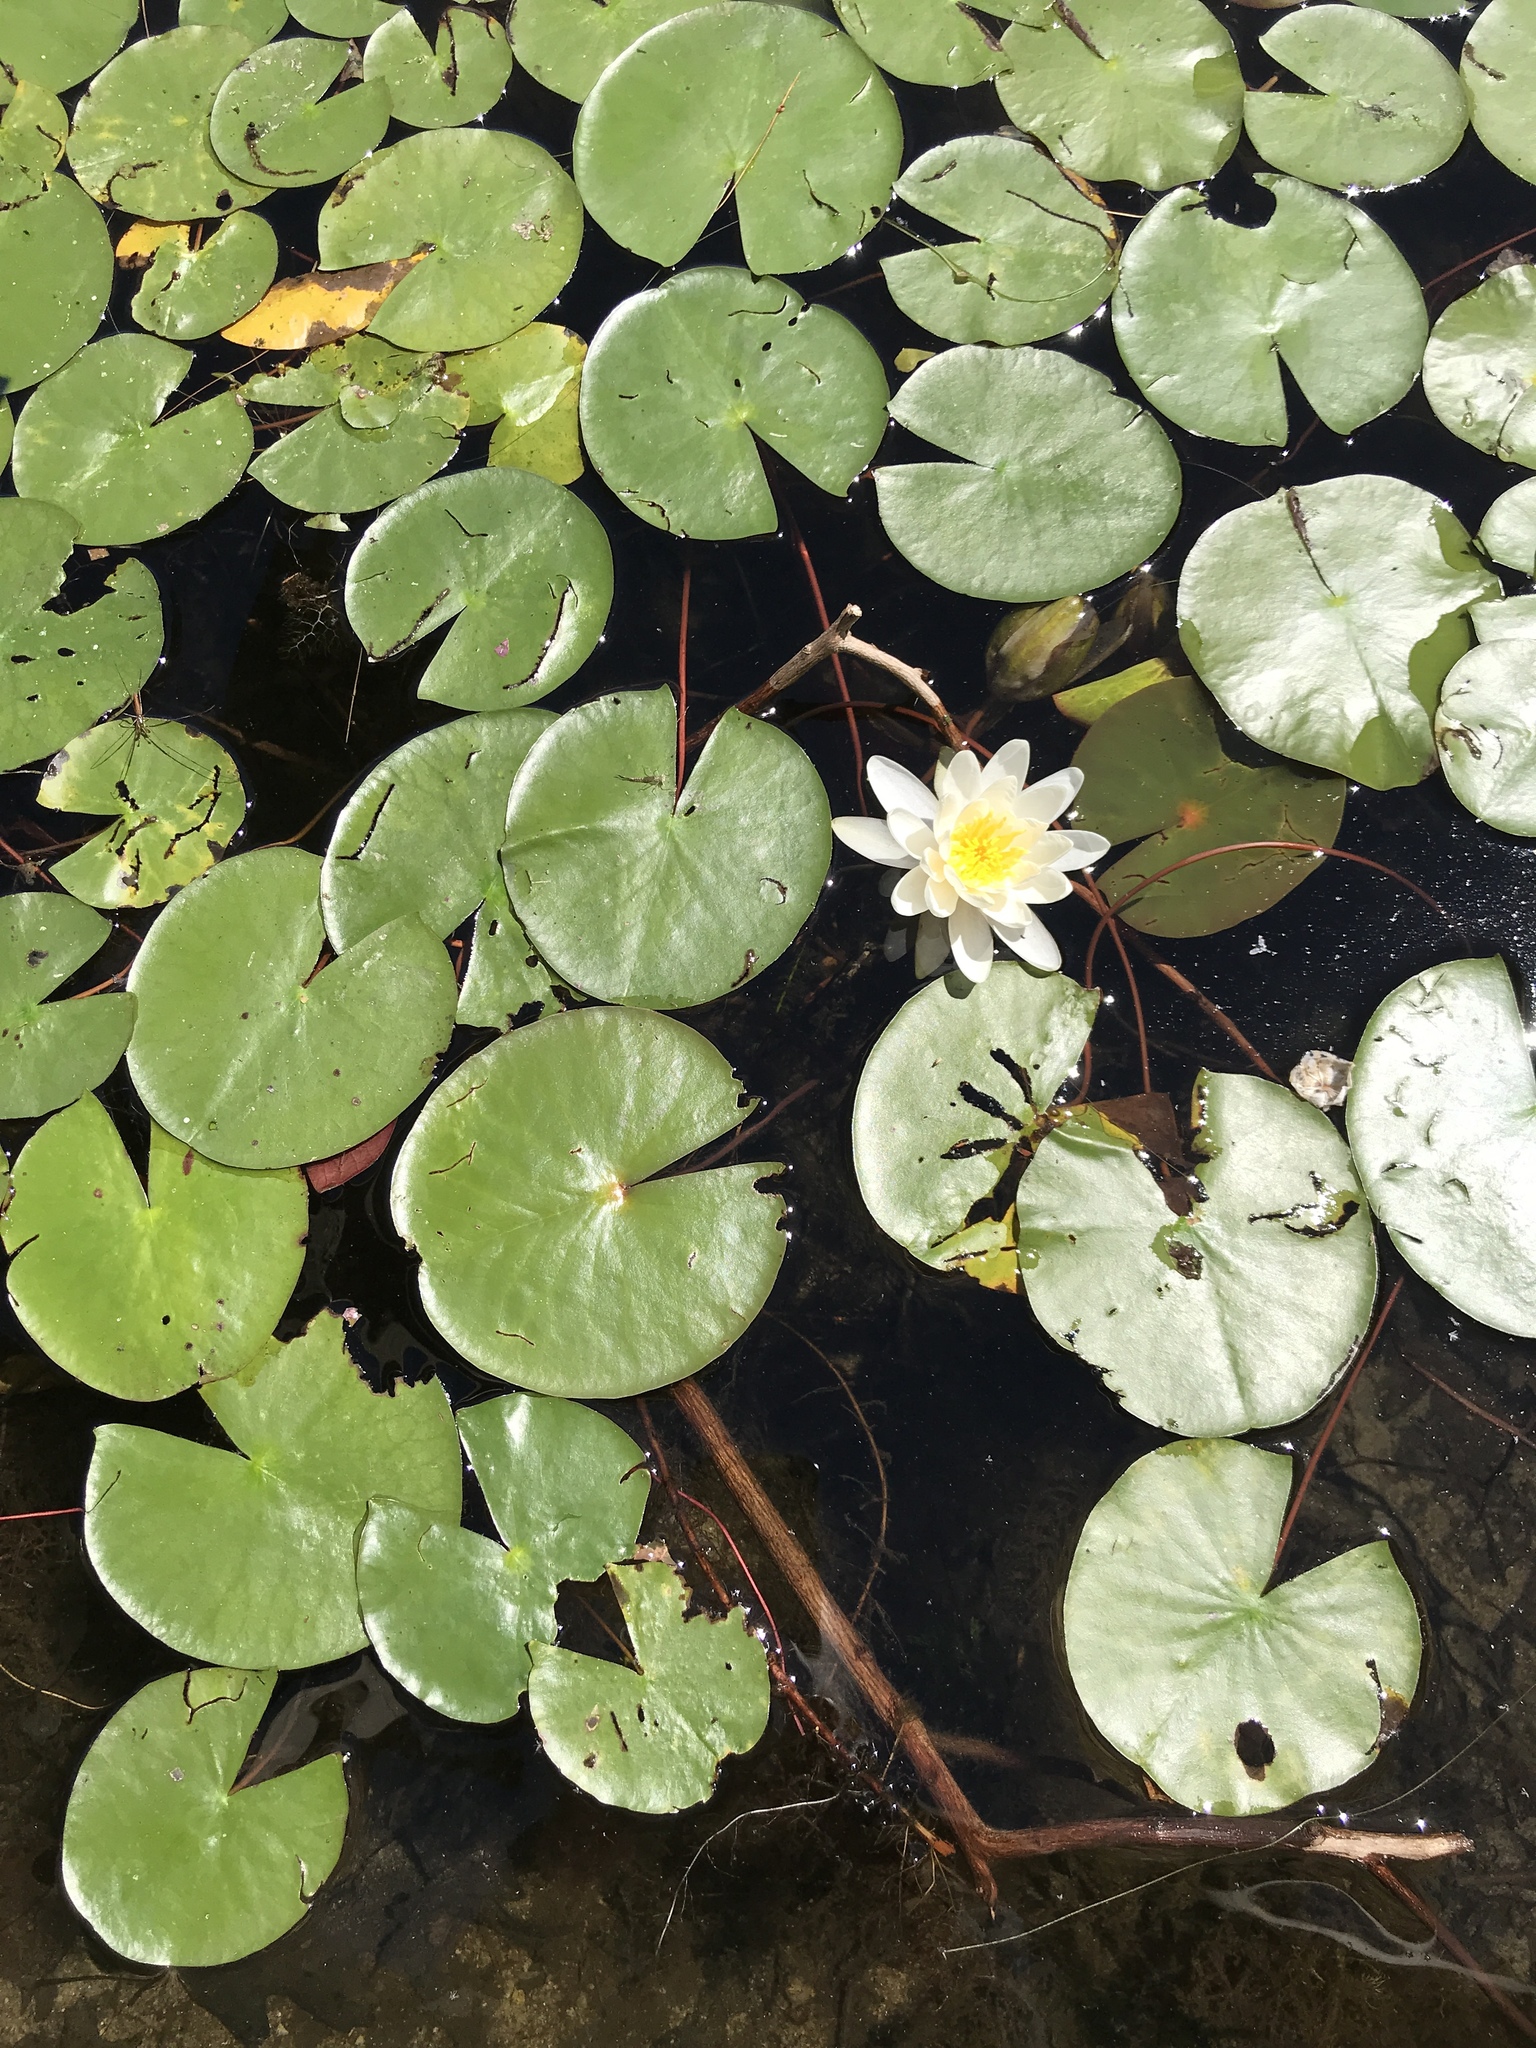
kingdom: Plantae
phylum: Tracheophyta
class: Magnoliopsida
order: Nymphaeales
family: Nymphaeaceae
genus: Nymphaea
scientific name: Nymphaea odorata
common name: Fragrant water-lily
